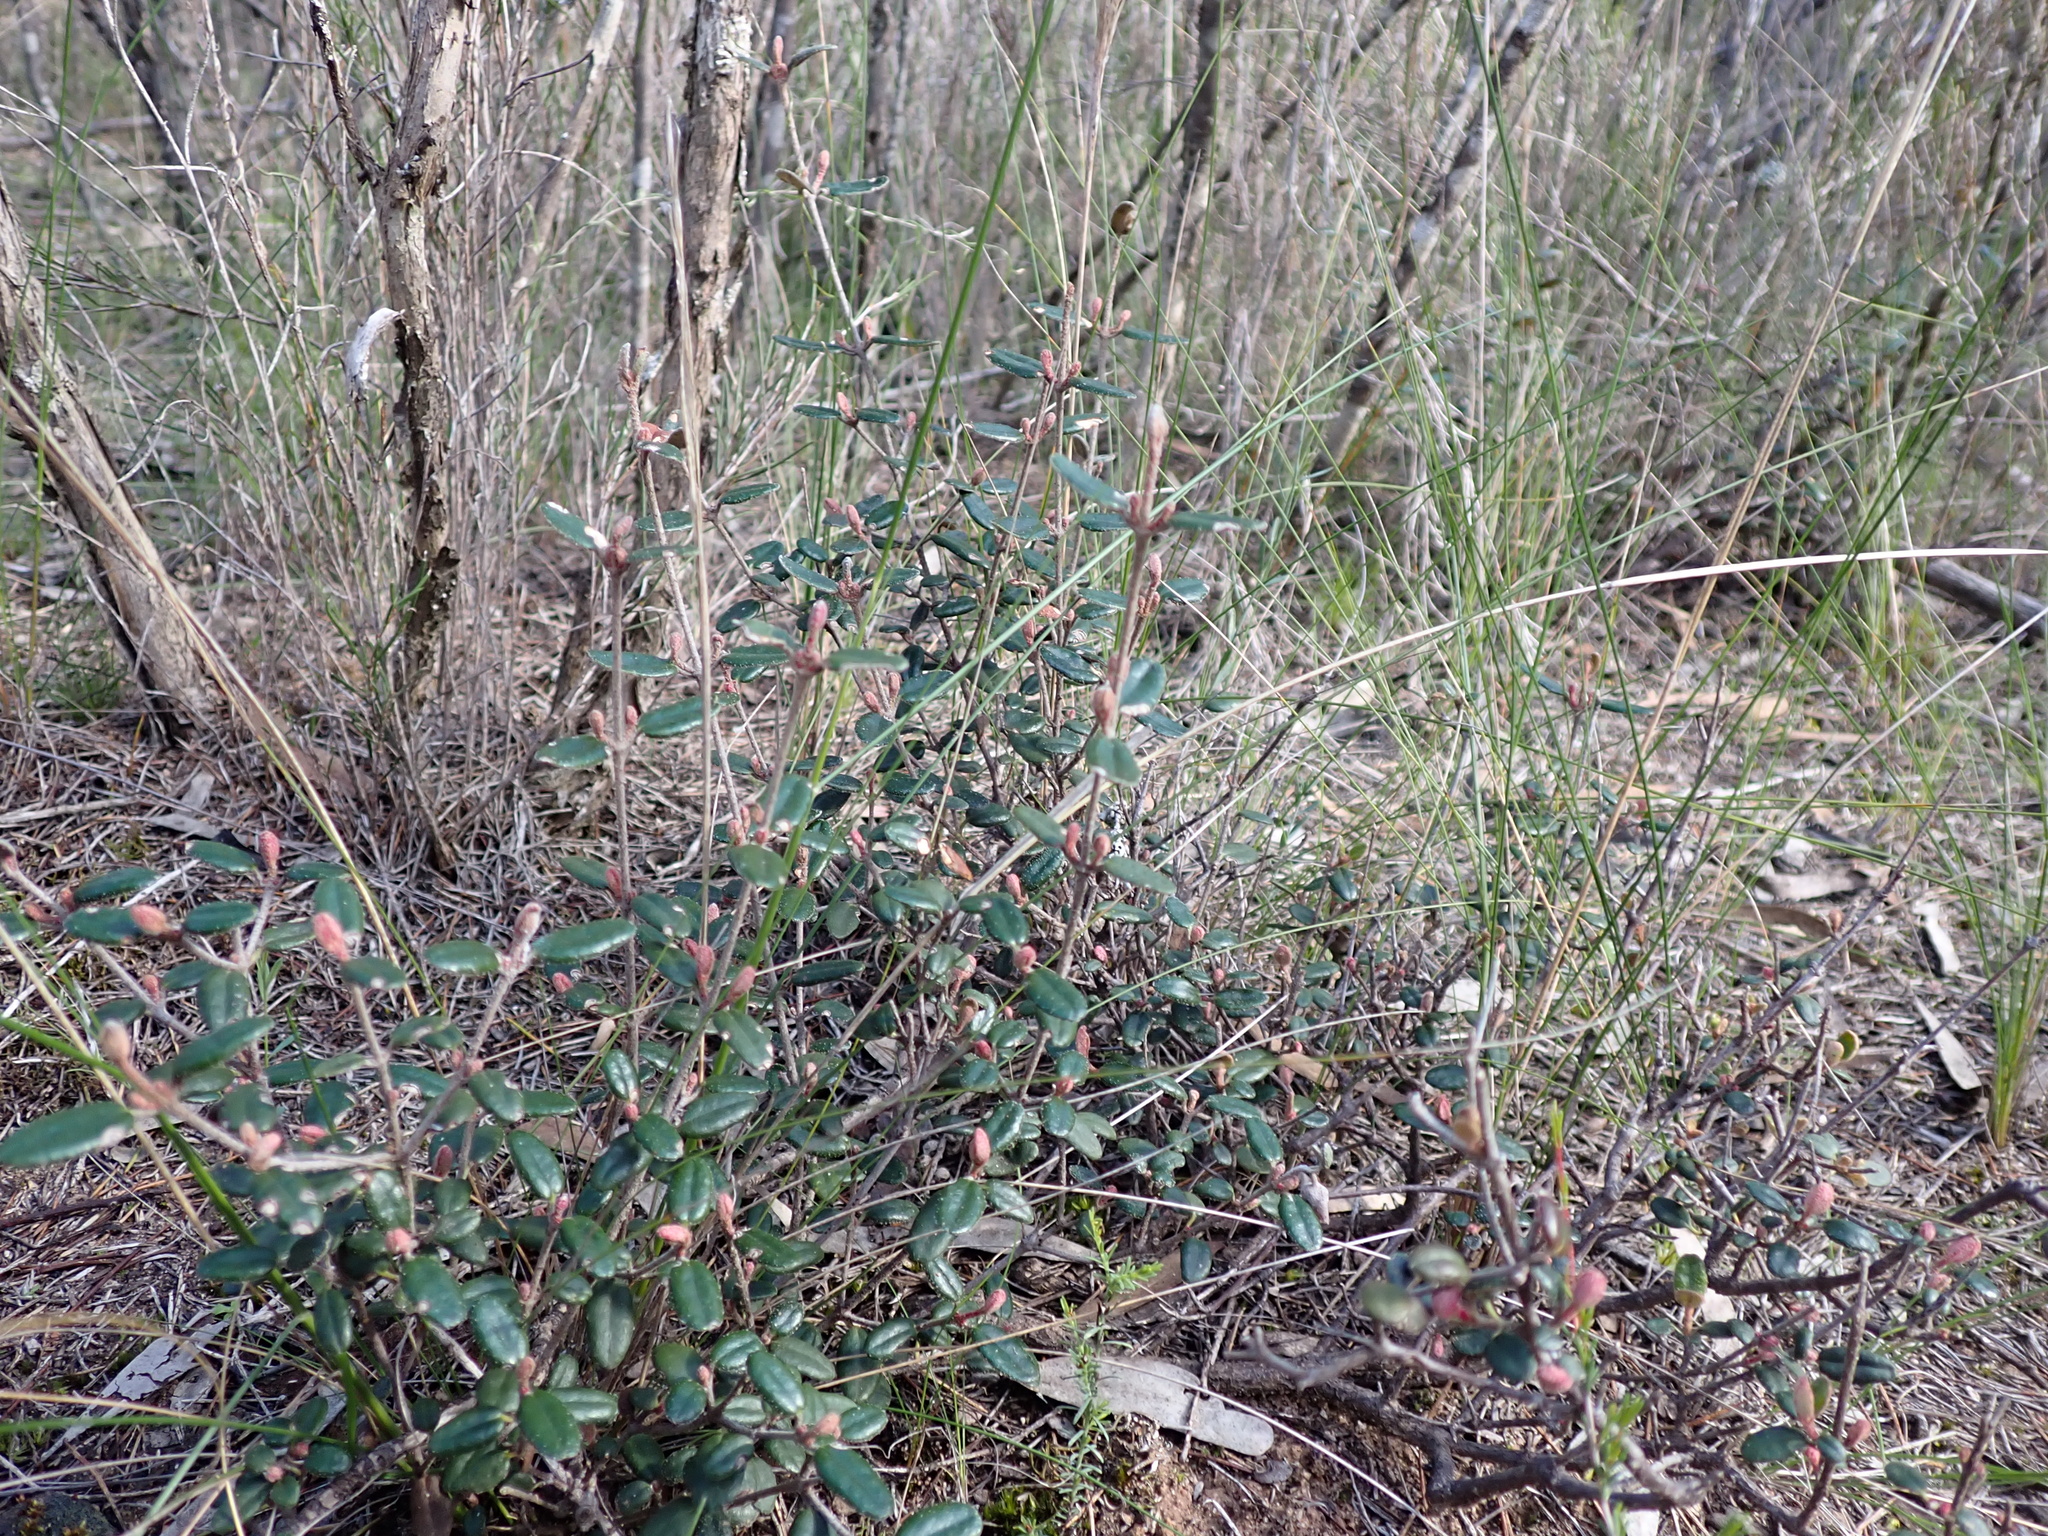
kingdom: Plantae
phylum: Tracheophyta
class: Magnoliopsida
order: Sapindales
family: Rutaceae
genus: Correa
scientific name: Correa reflexa
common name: Common correa
